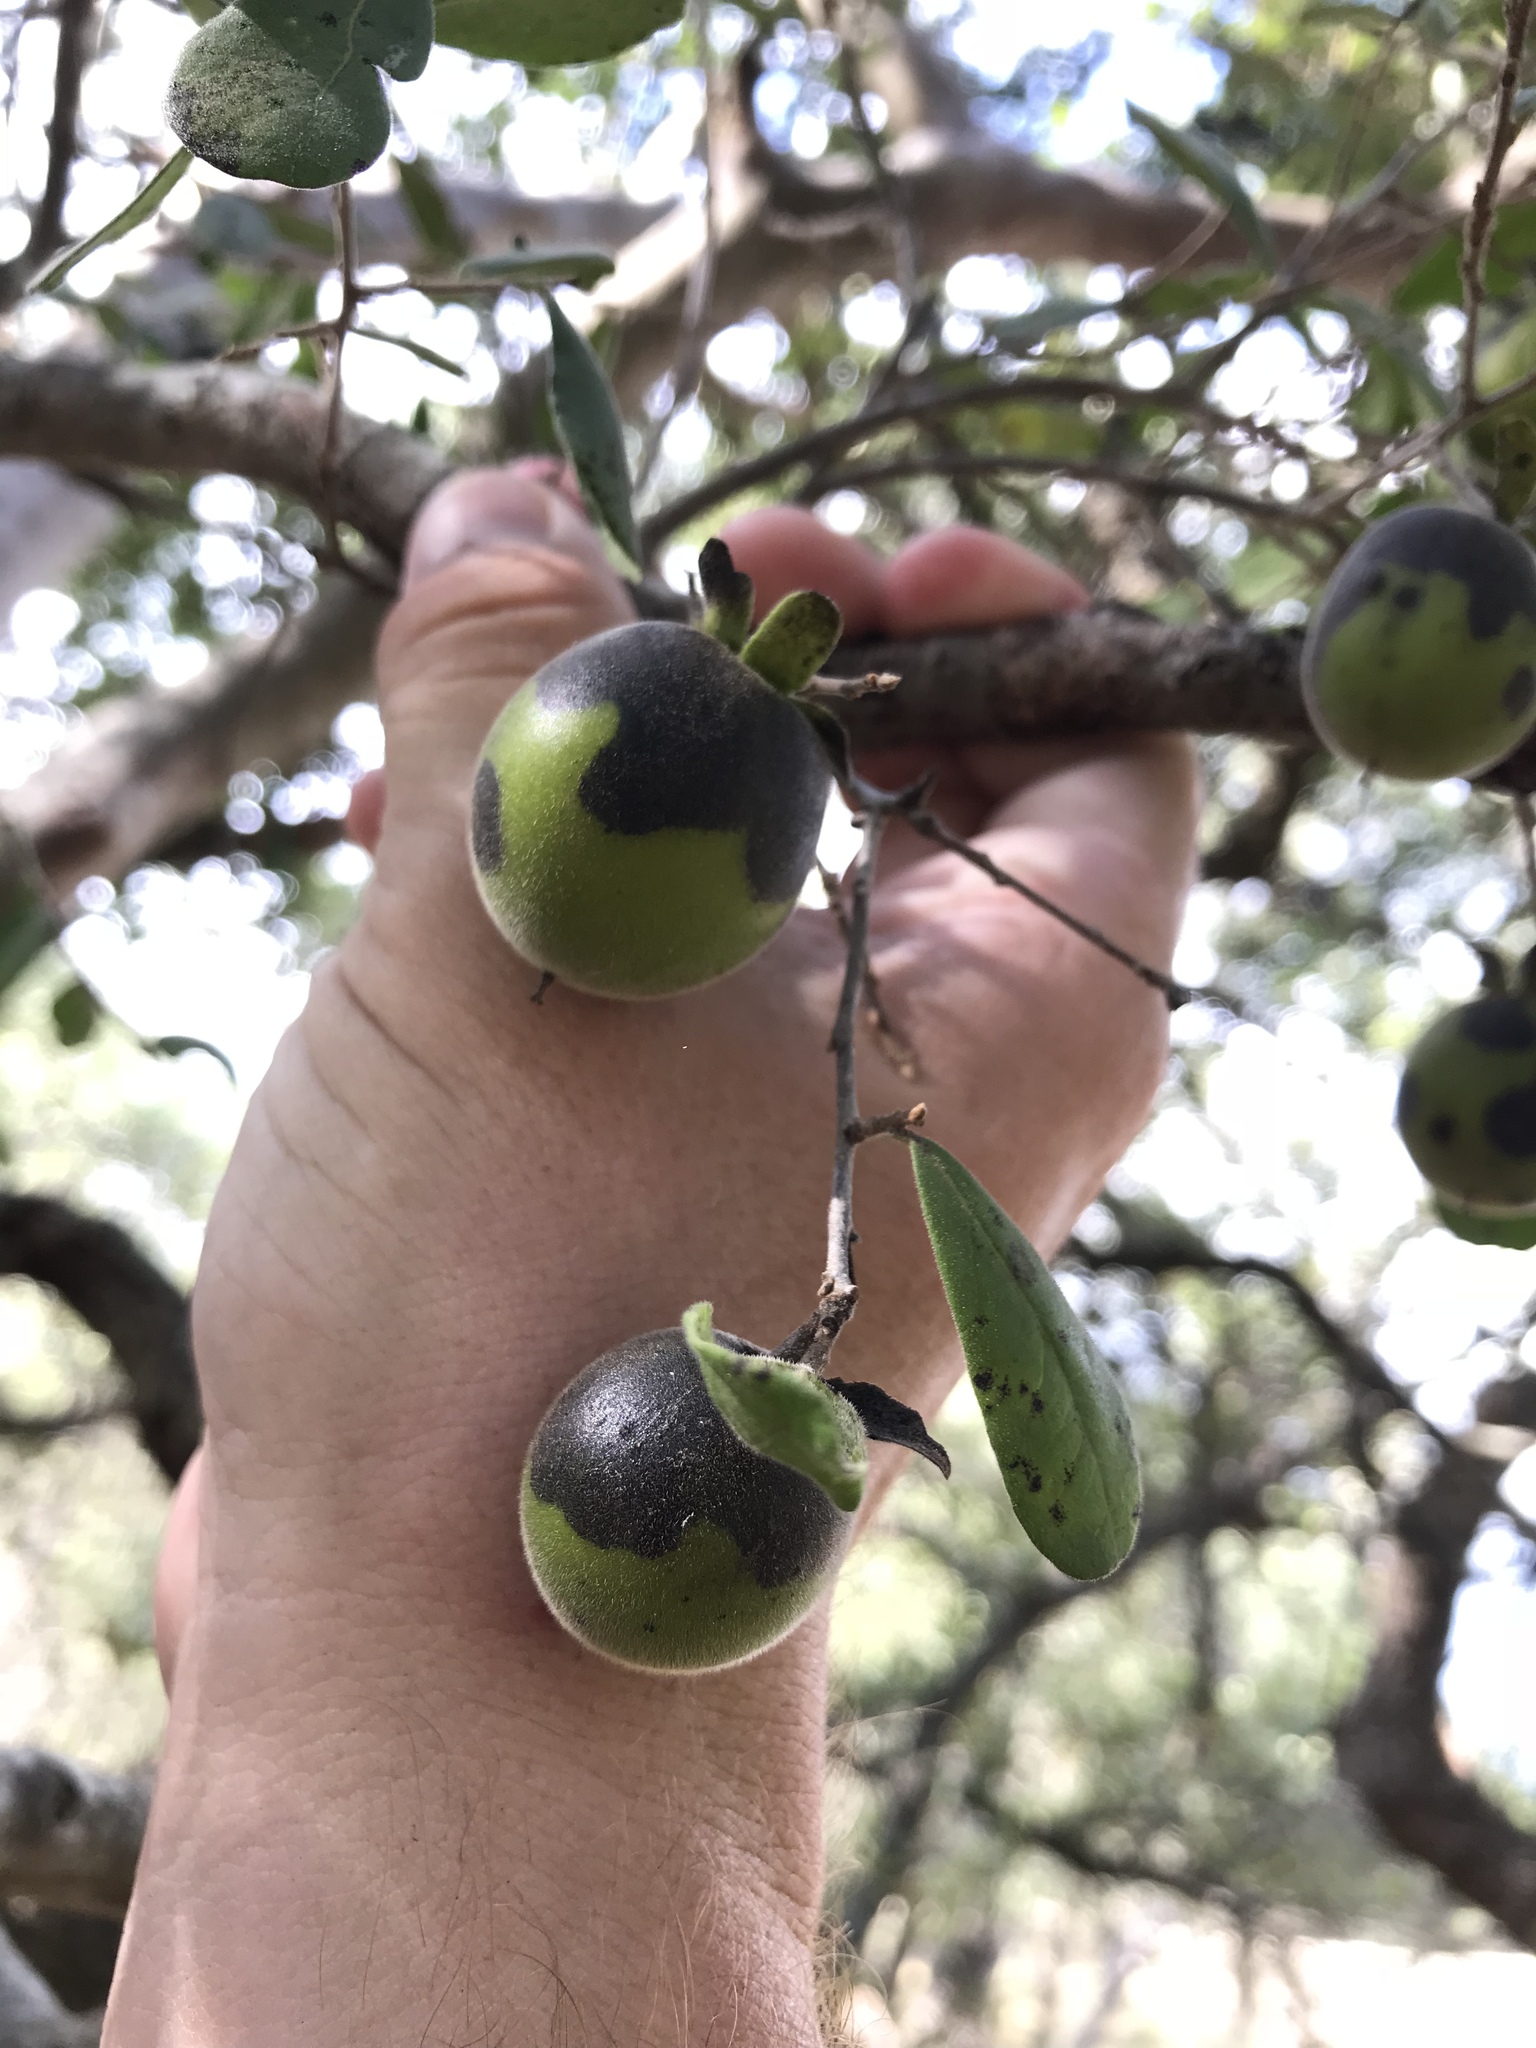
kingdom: Plantae
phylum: Tracheophyta
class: Magnoliopsida
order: Ericales
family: Ebenaceae
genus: Diospyros
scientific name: Diospyros texana
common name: Texas persimmon
